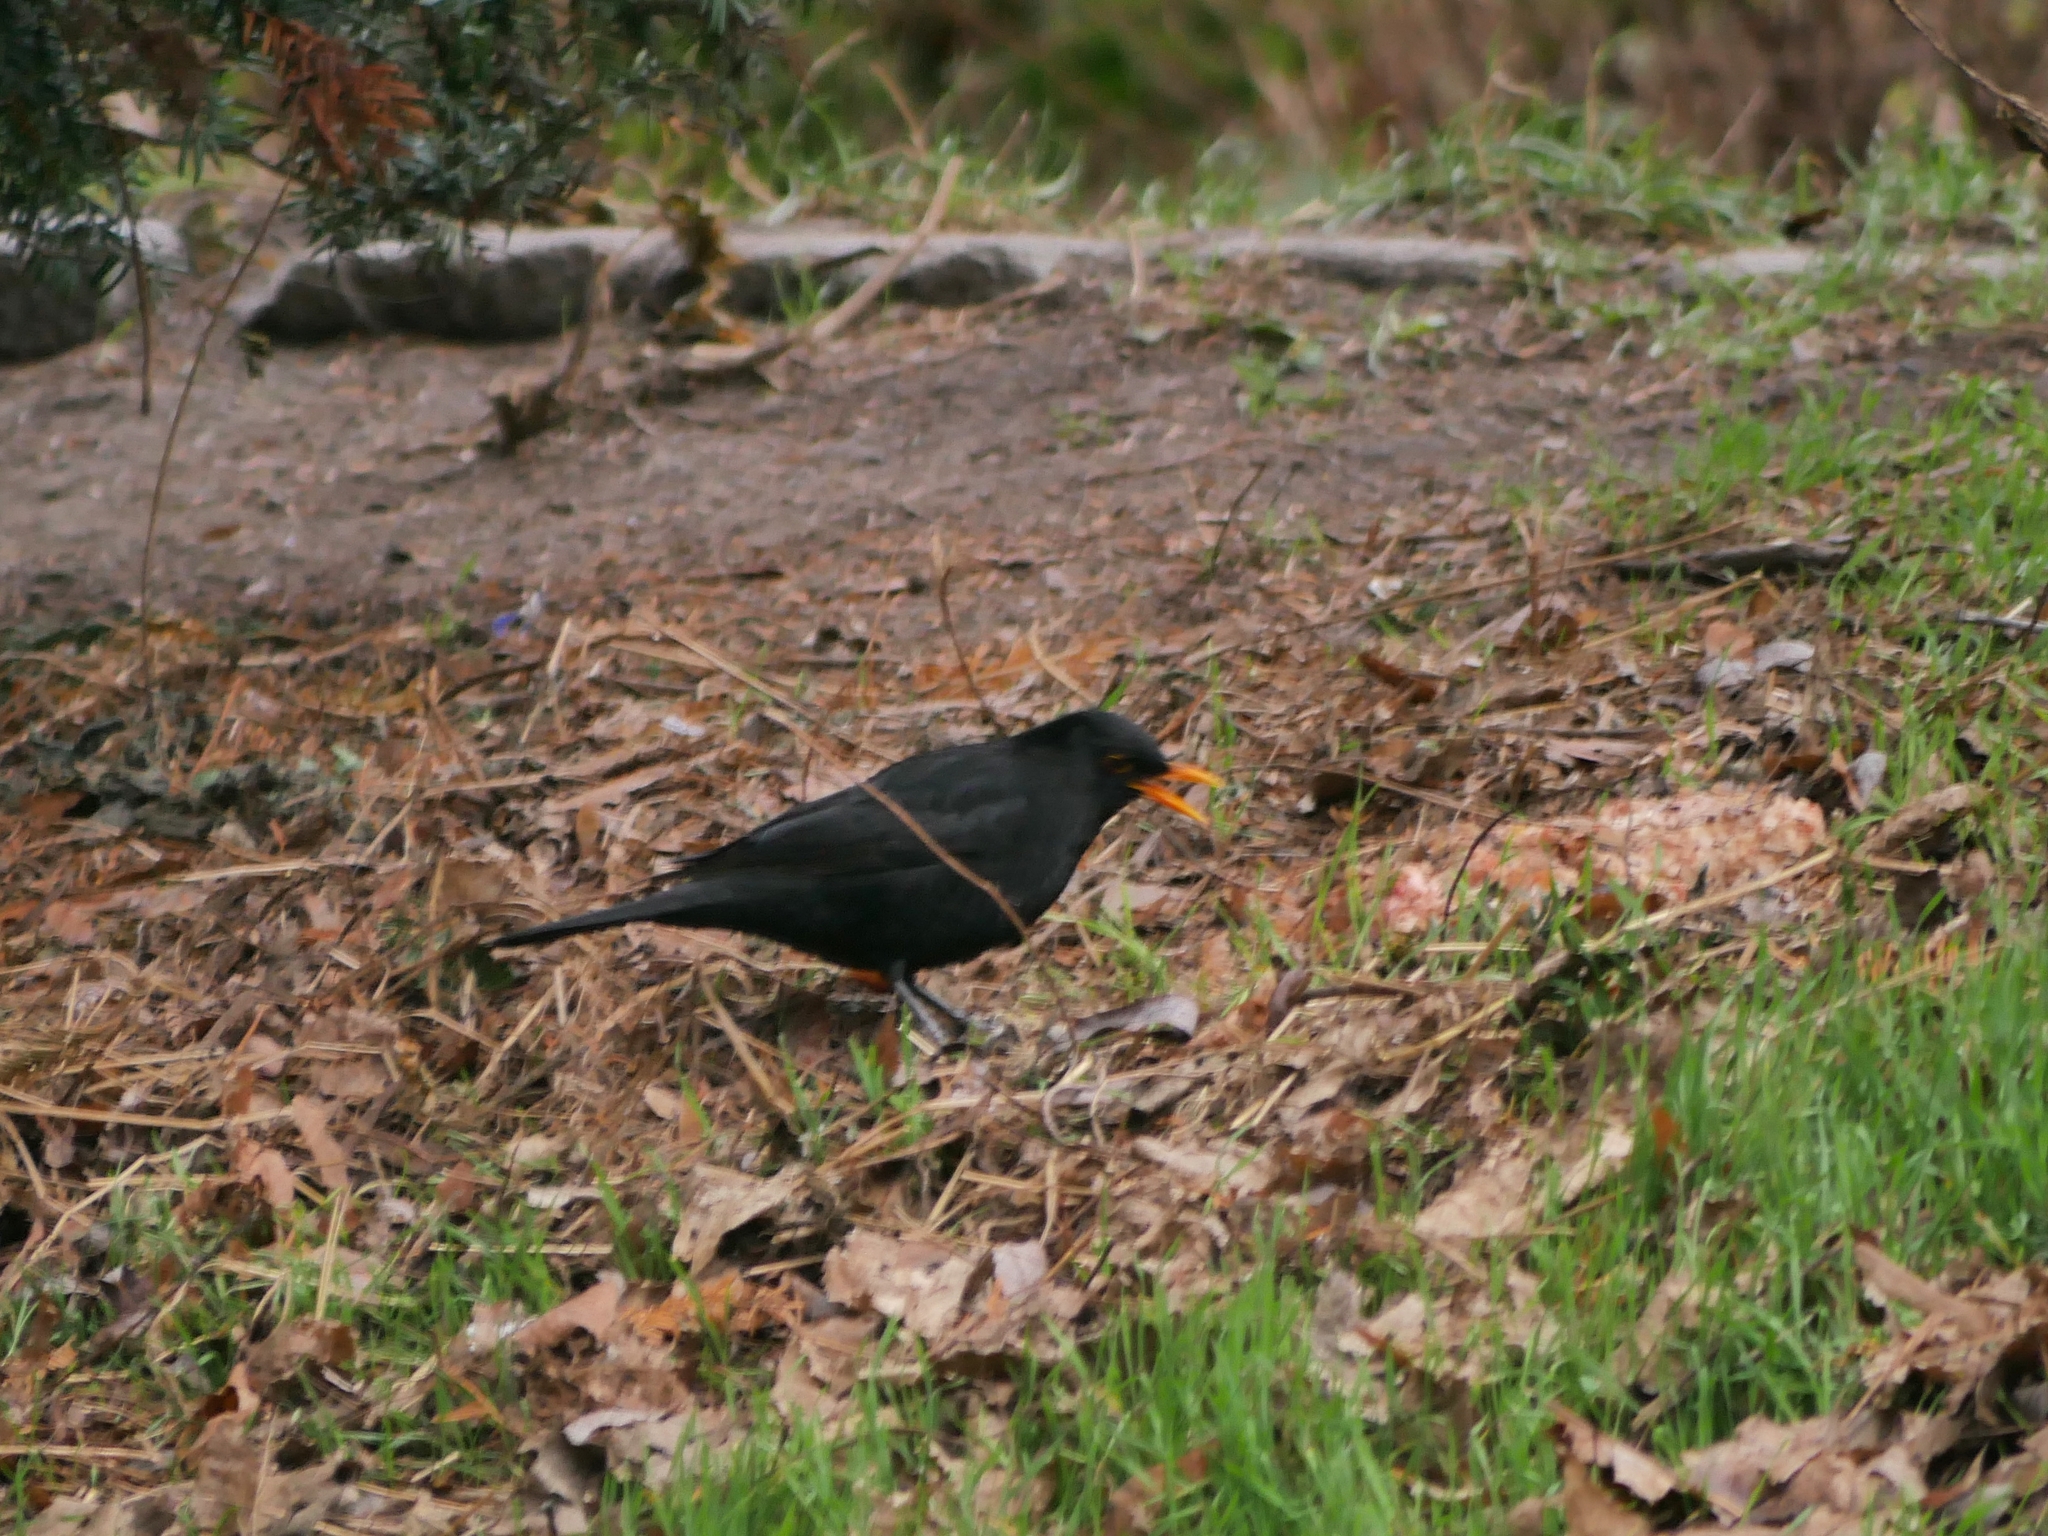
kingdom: Animalia
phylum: Chordata
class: Aves
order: Passeriformes
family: Turdidae
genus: Turdus
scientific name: Turdus merula
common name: Common blackbird
